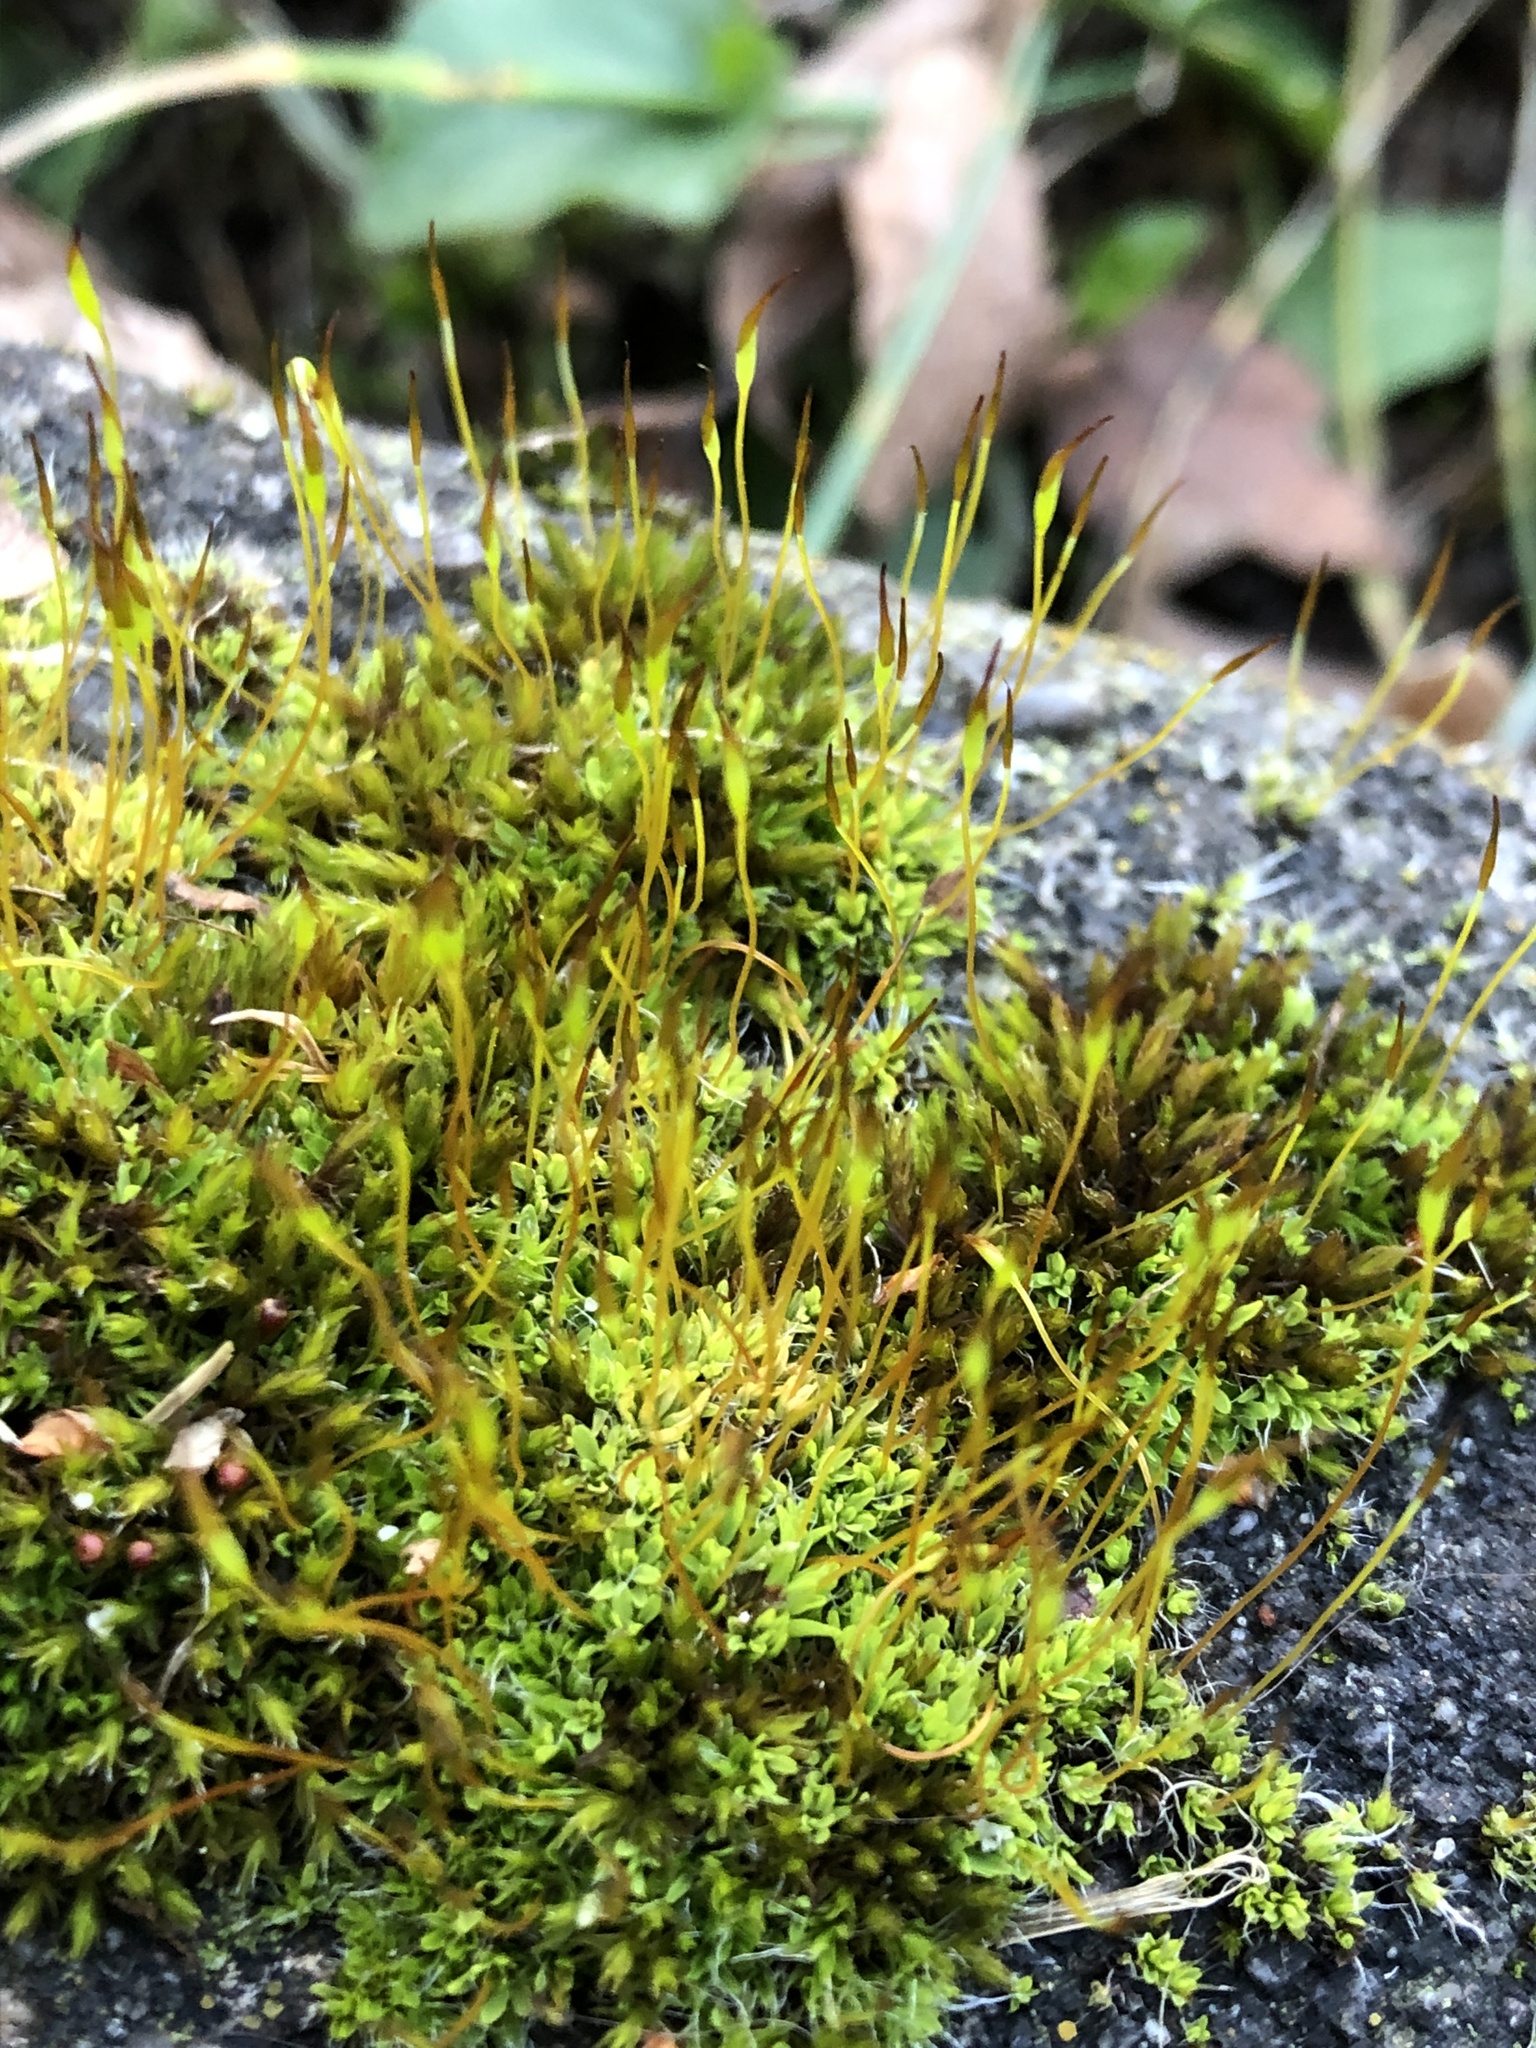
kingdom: Plantae
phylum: Bryophyta
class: Bryopsida
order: Pottiales
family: Pottiaceae
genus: Tortula
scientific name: Tortula muralis
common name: Wall screw-moss
